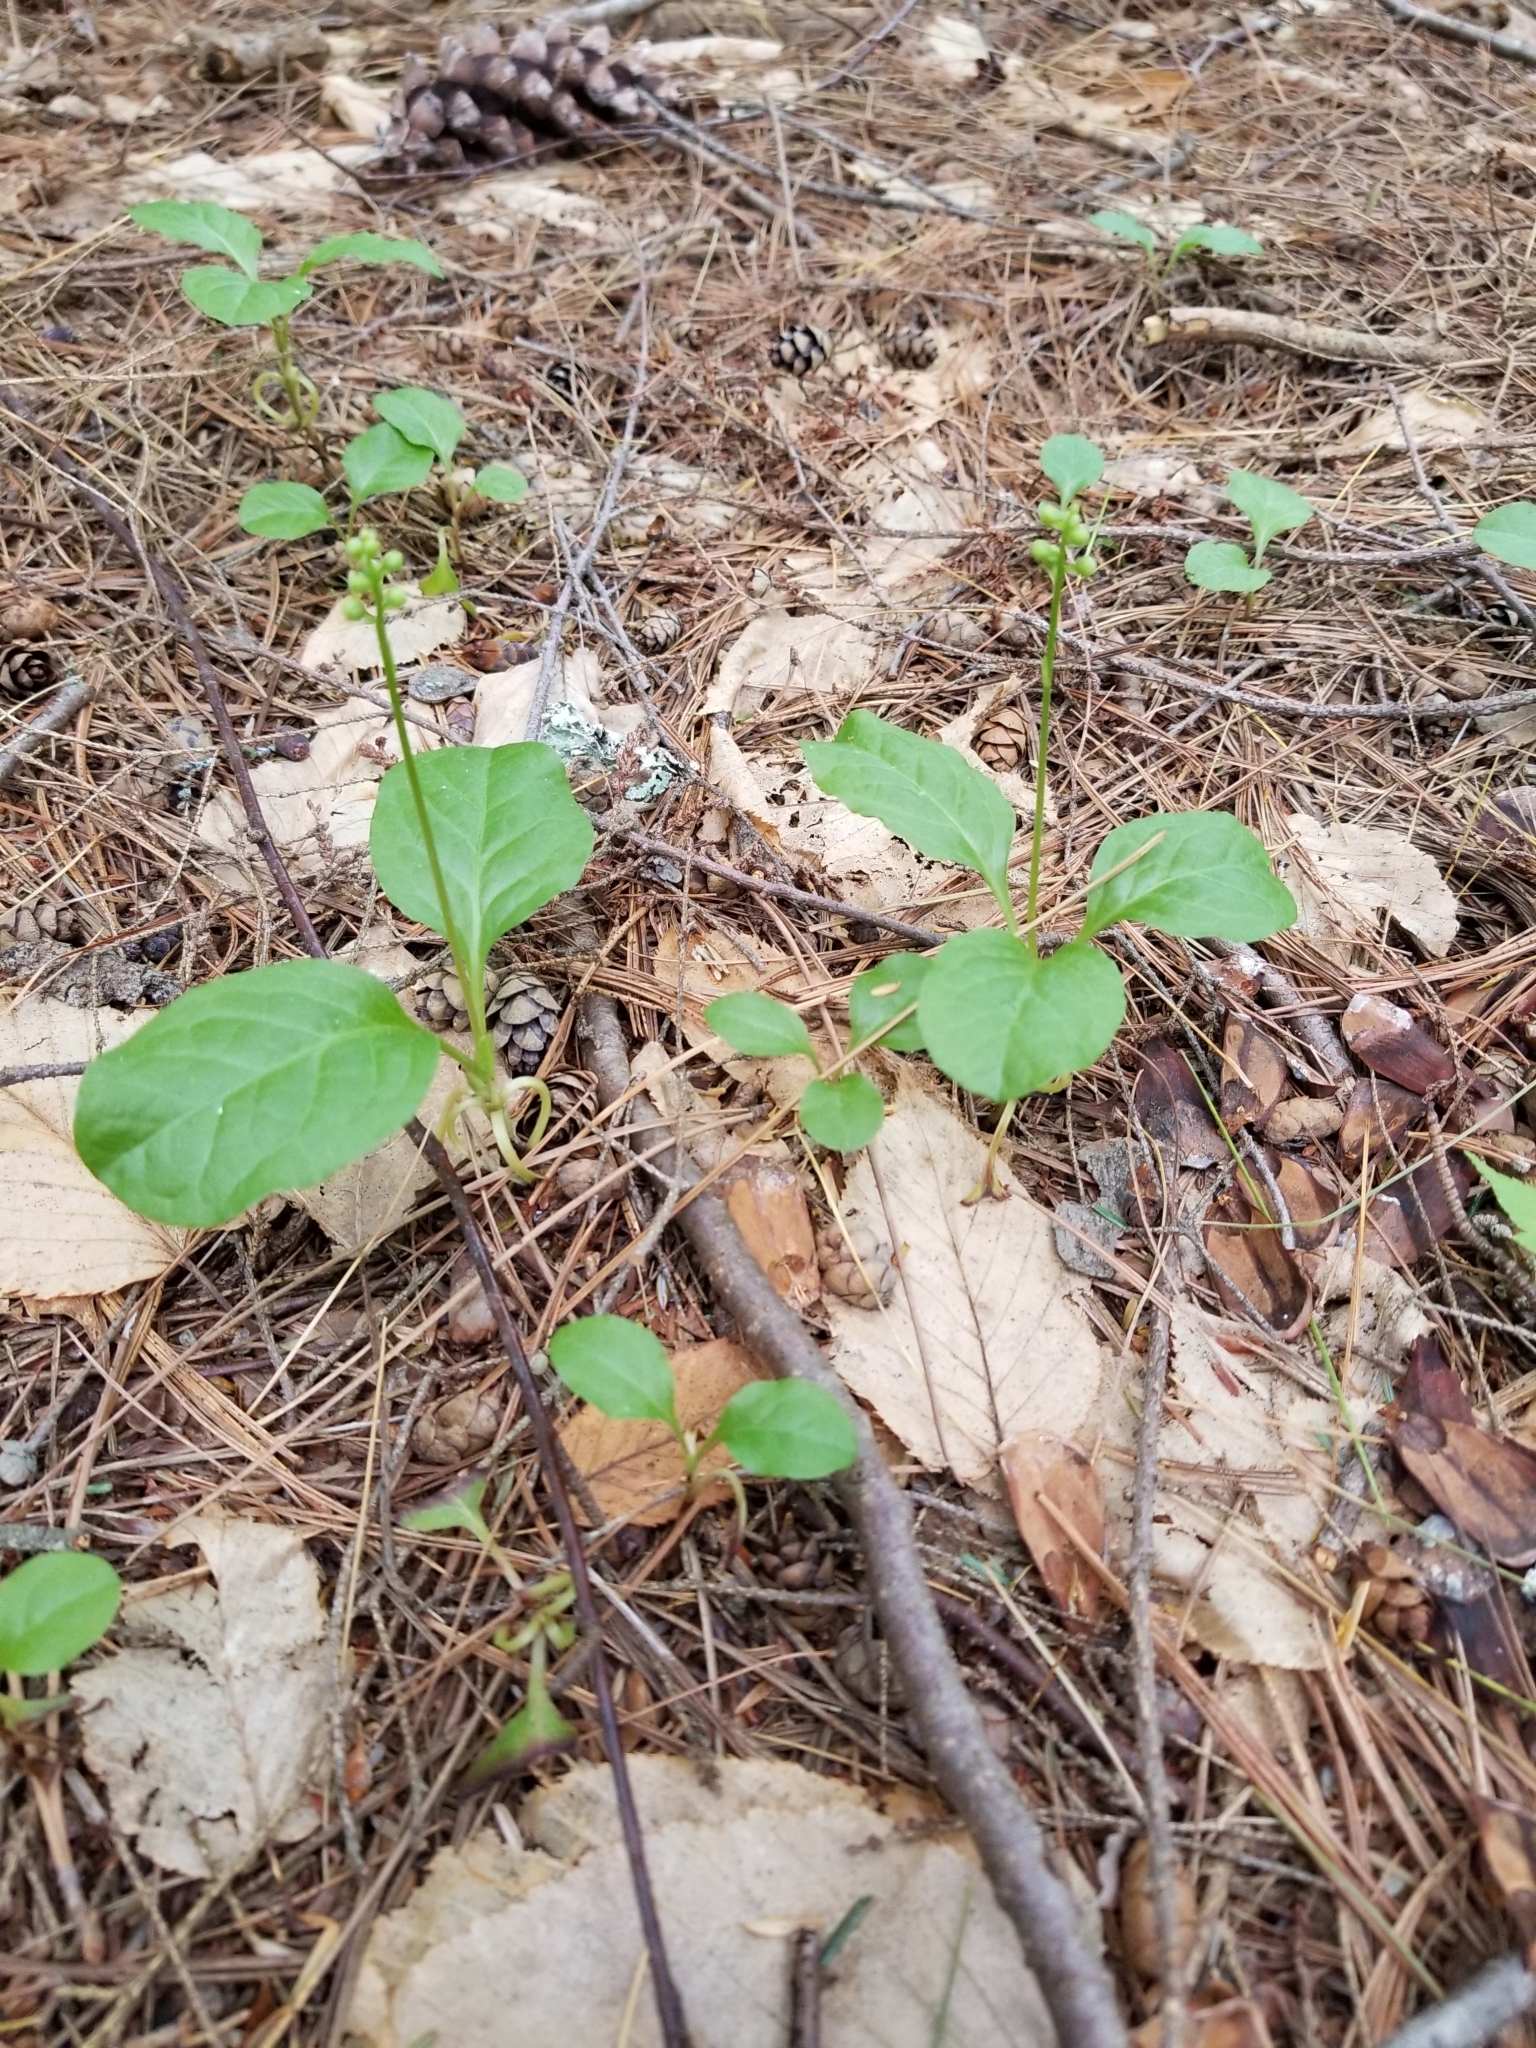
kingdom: Plantae
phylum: Tracheophyta
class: Magnoliopsida
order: Ericales
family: Ericaceae
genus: Pyrola
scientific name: Pyrola elliptica
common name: Shinleaf
